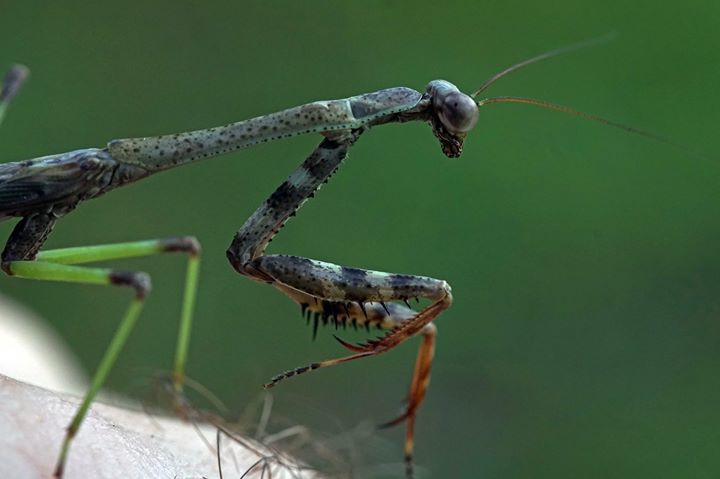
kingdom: Animalia
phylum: Arthropoda
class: Insecta
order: Mantodea
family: Mantidae
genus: Stagmomantis
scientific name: Stagmomantis carolina
